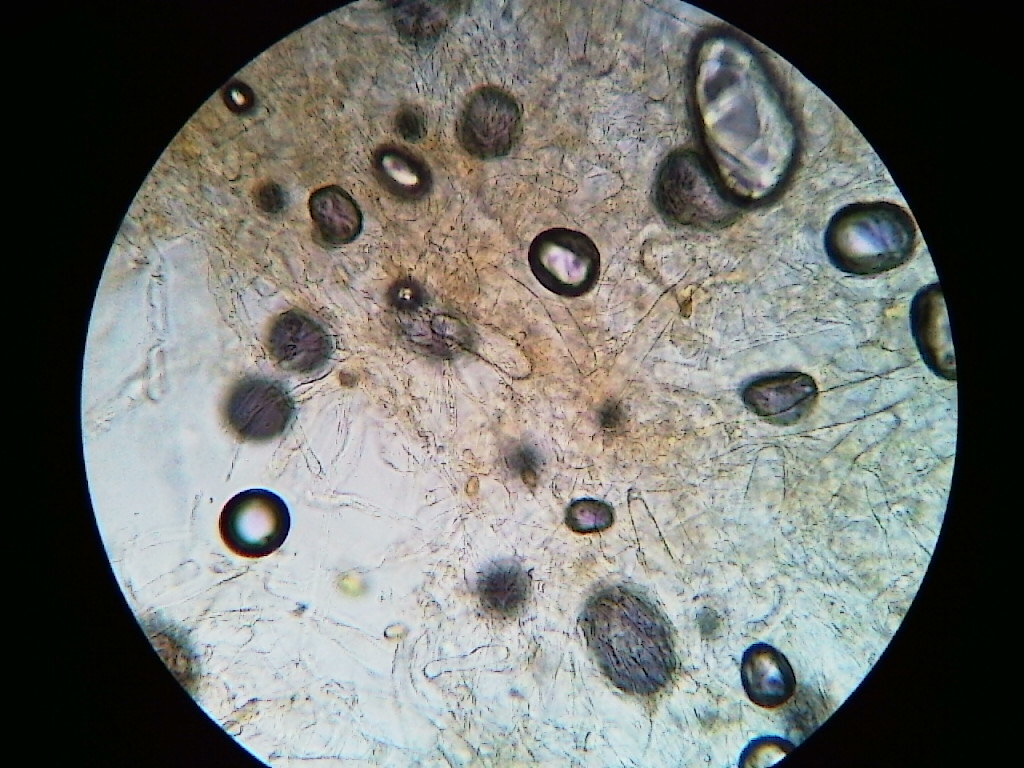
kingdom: Fungi
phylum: Basidiomycota
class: Agaricomycetes
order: Agaricales
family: Strophariaceae
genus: Agrocybe
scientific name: Agrocybe humosa
